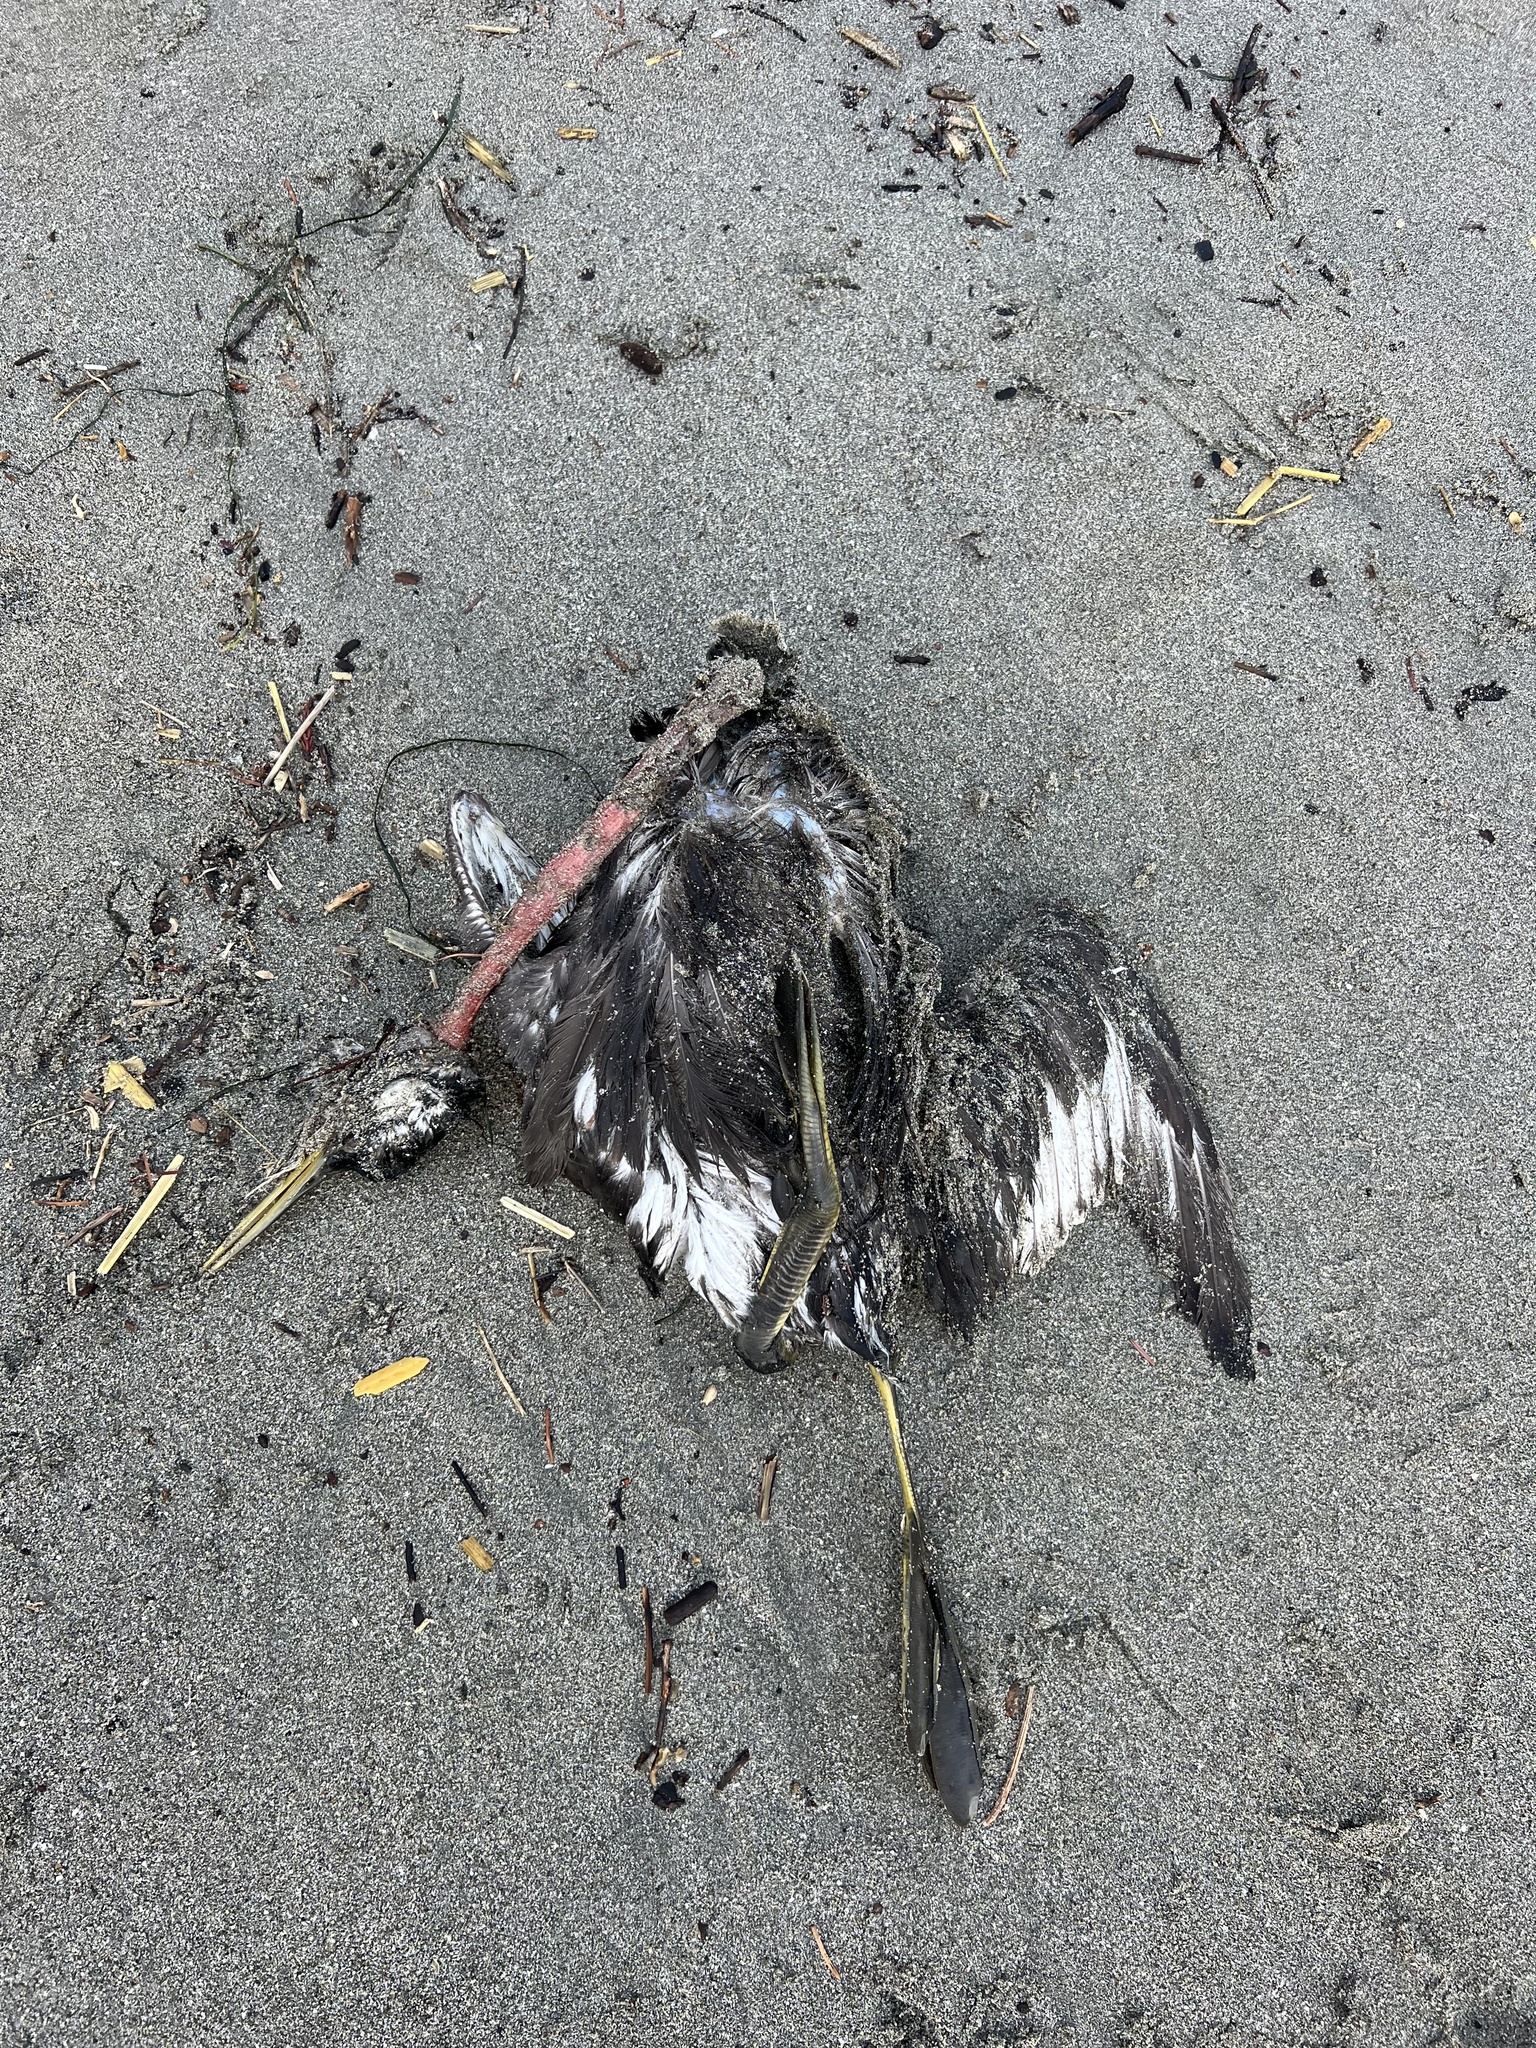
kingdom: Animalia
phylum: Chordata
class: Aves
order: Podicipediformes
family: Podicipedidae
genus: Aechmophorus
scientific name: Aechmophorus
